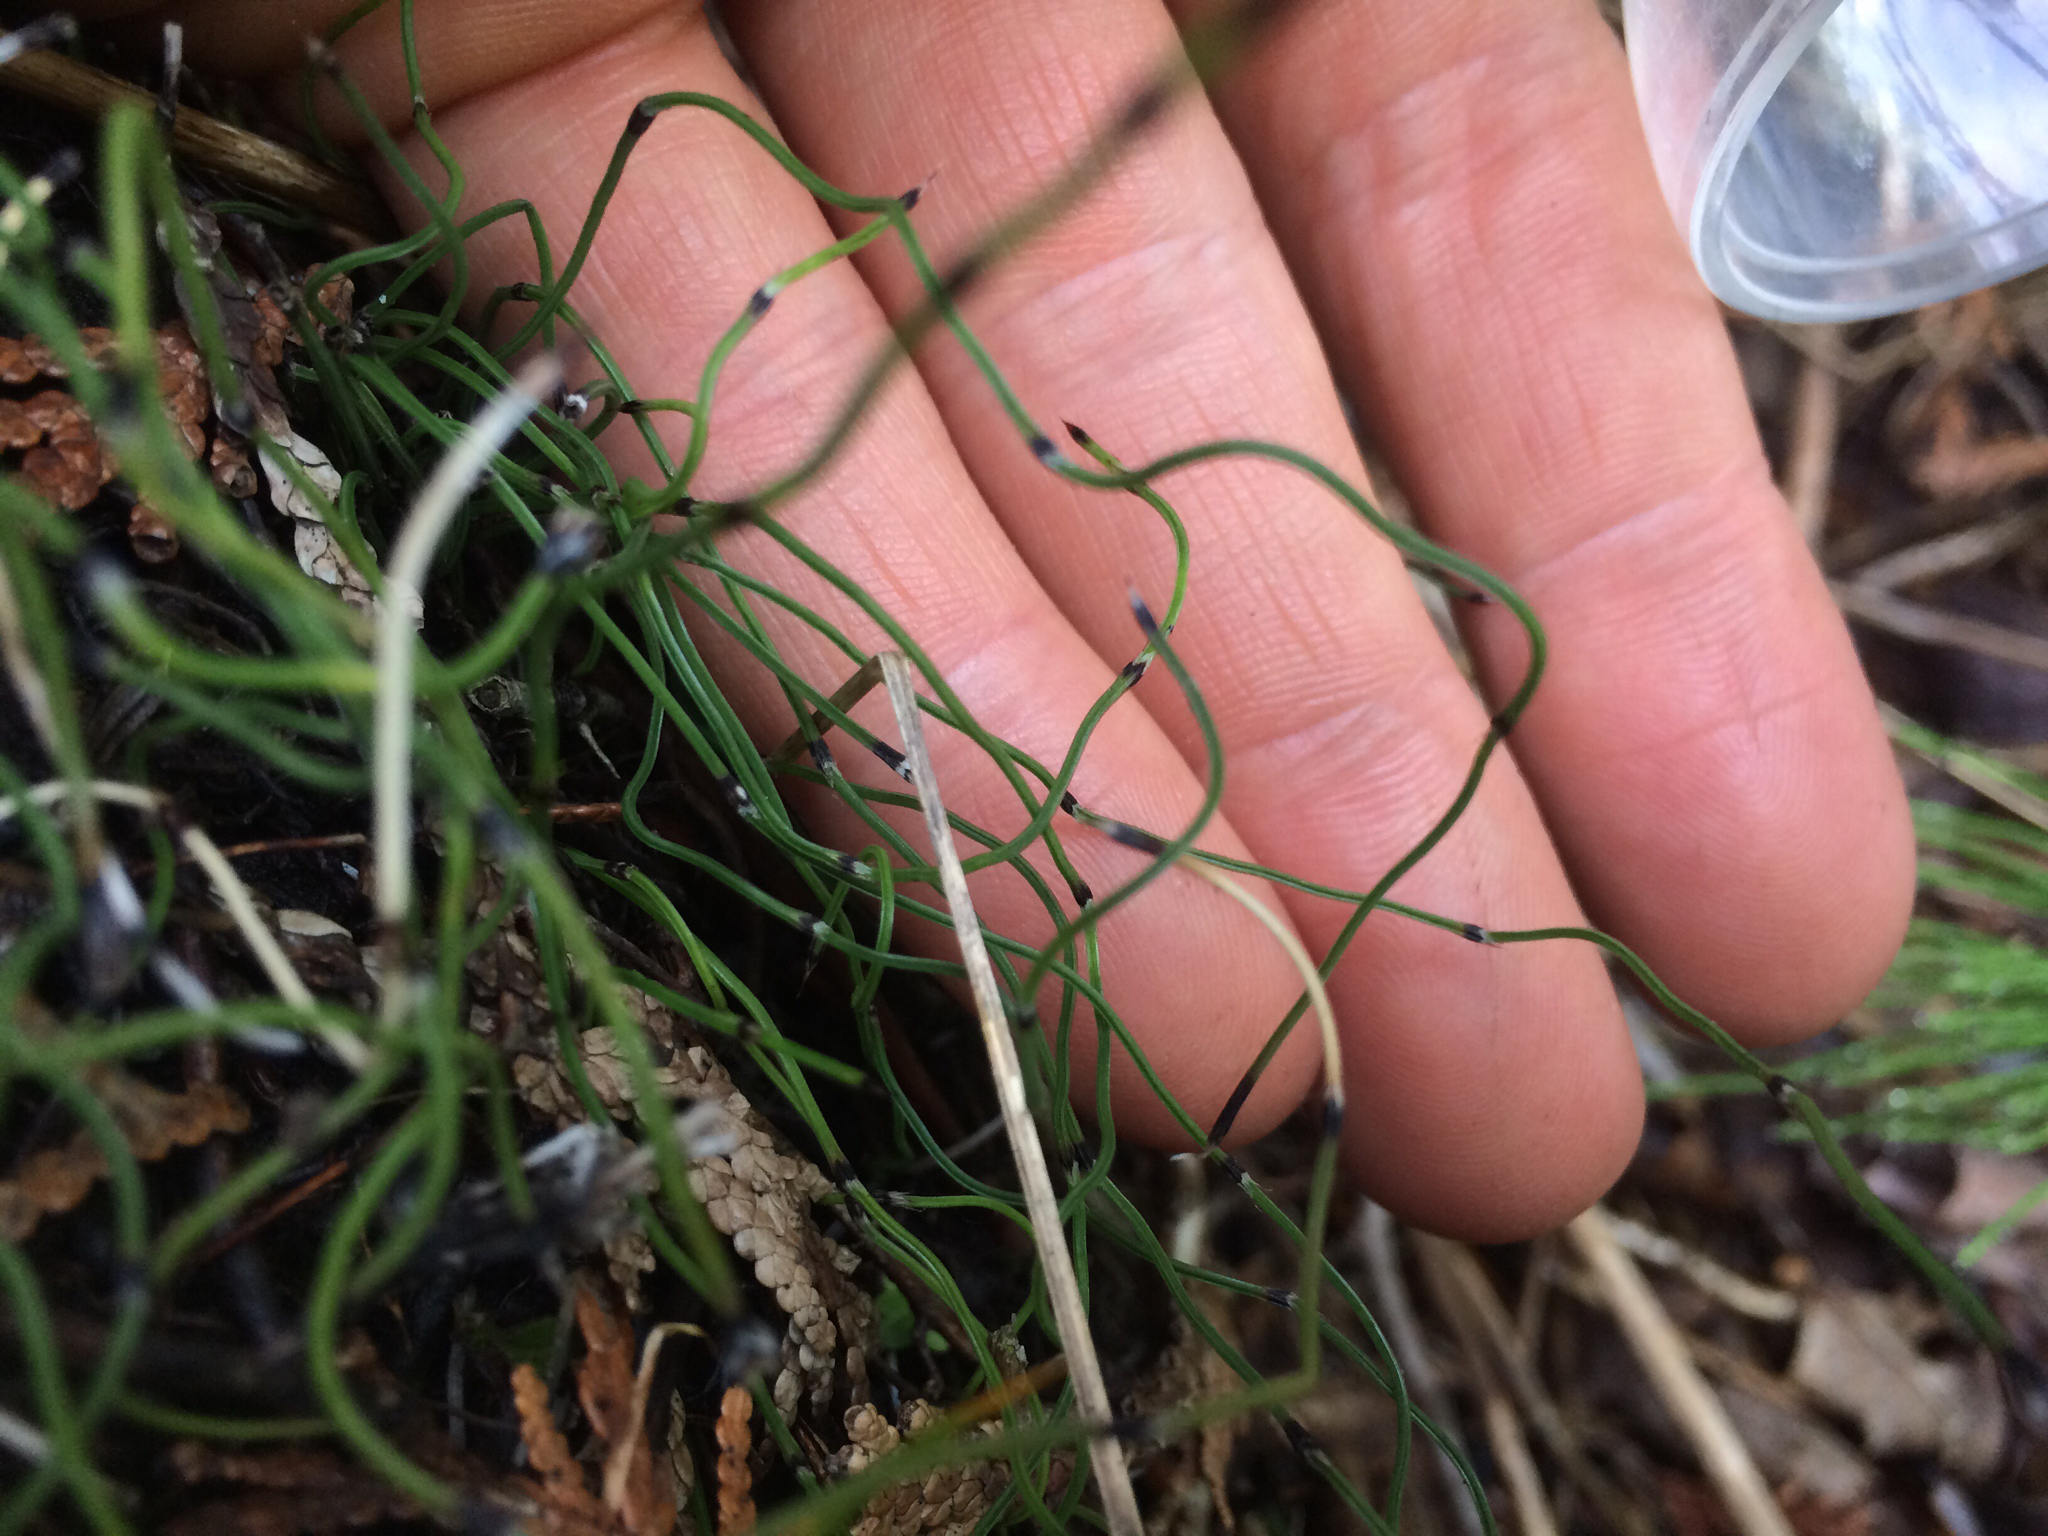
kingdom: Plantae
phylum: Tracheophyta
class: Polypodiopsida
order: Equisetales
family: Equisetaceae
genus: Equisetum
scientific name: Equisetum scirpoides
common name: Delicate horsetail
